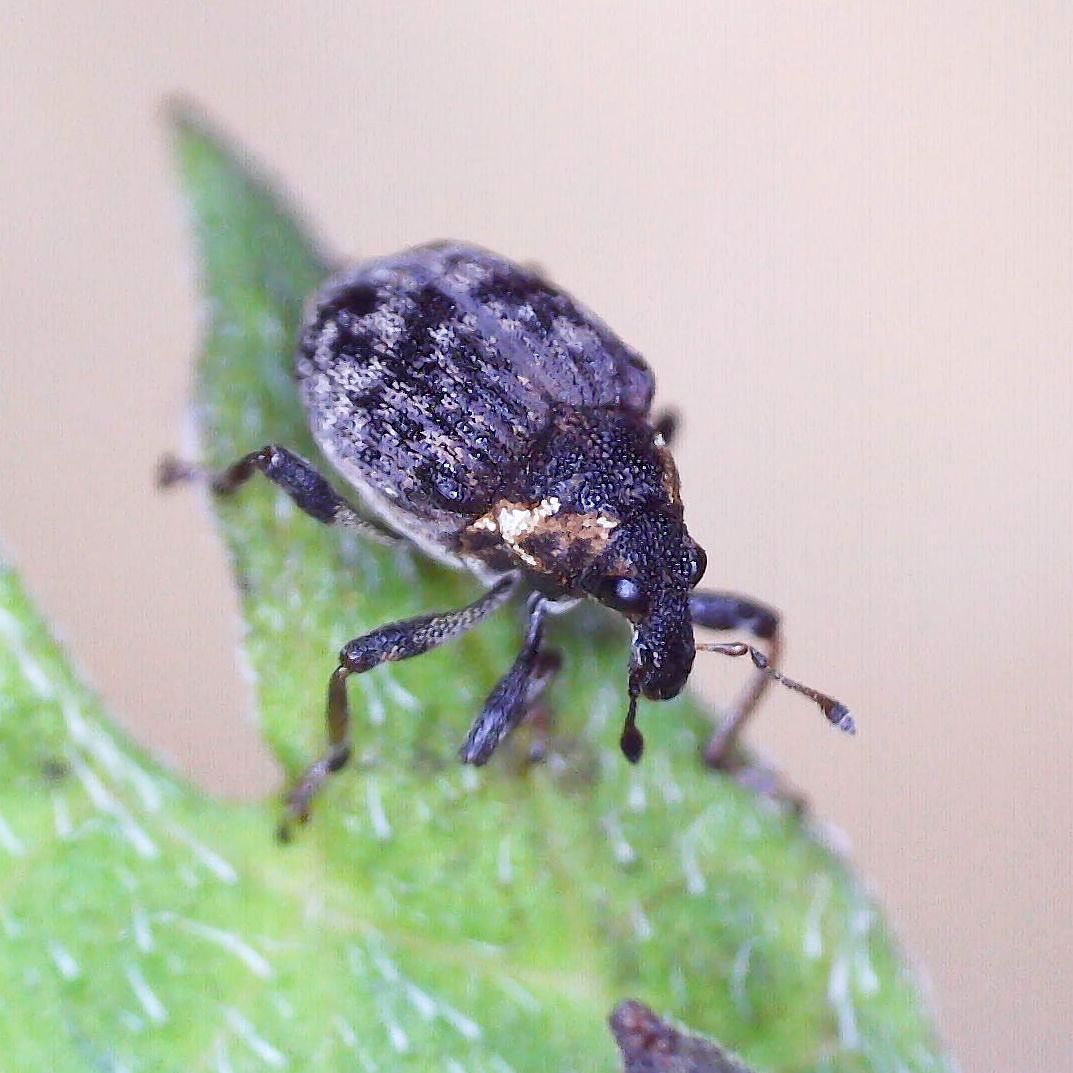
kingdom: Animalia
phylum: Arthropoda
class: Insecta
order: Coleoptera
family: Curculionidae
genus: Pelenomus
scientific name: Pelenomus commari
